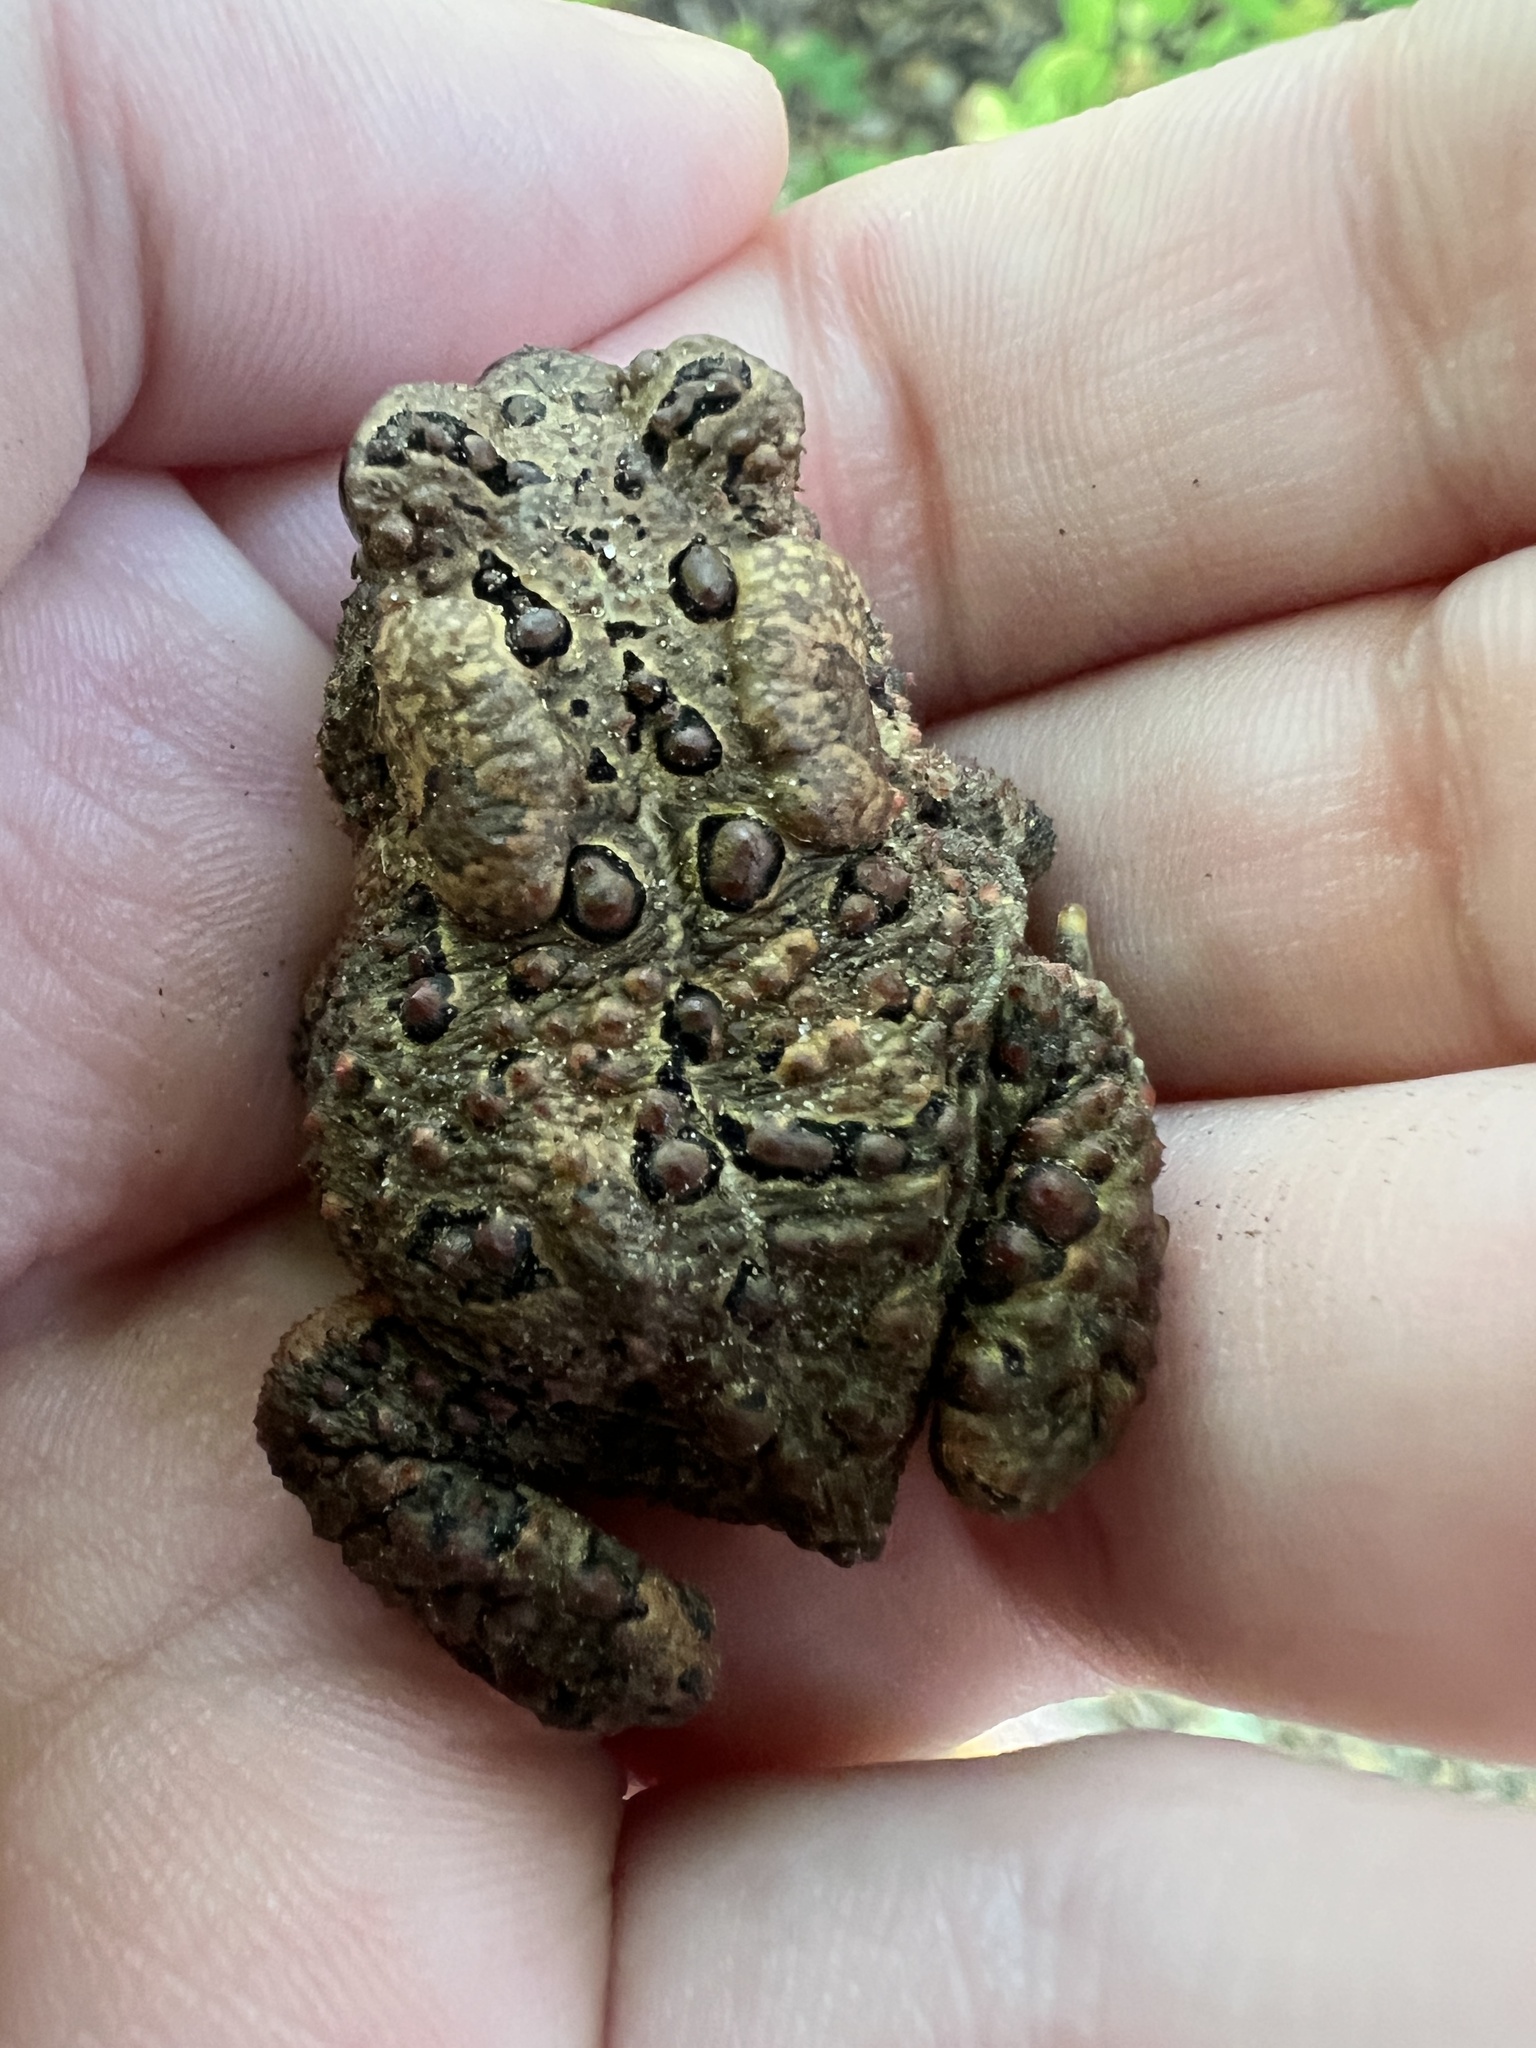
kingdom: Animalia
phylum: Chordata
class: Amphibia
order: Anura
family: Bufonidae
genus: Anaxyrus
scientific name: Anaxyrus americanus
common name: American toad
